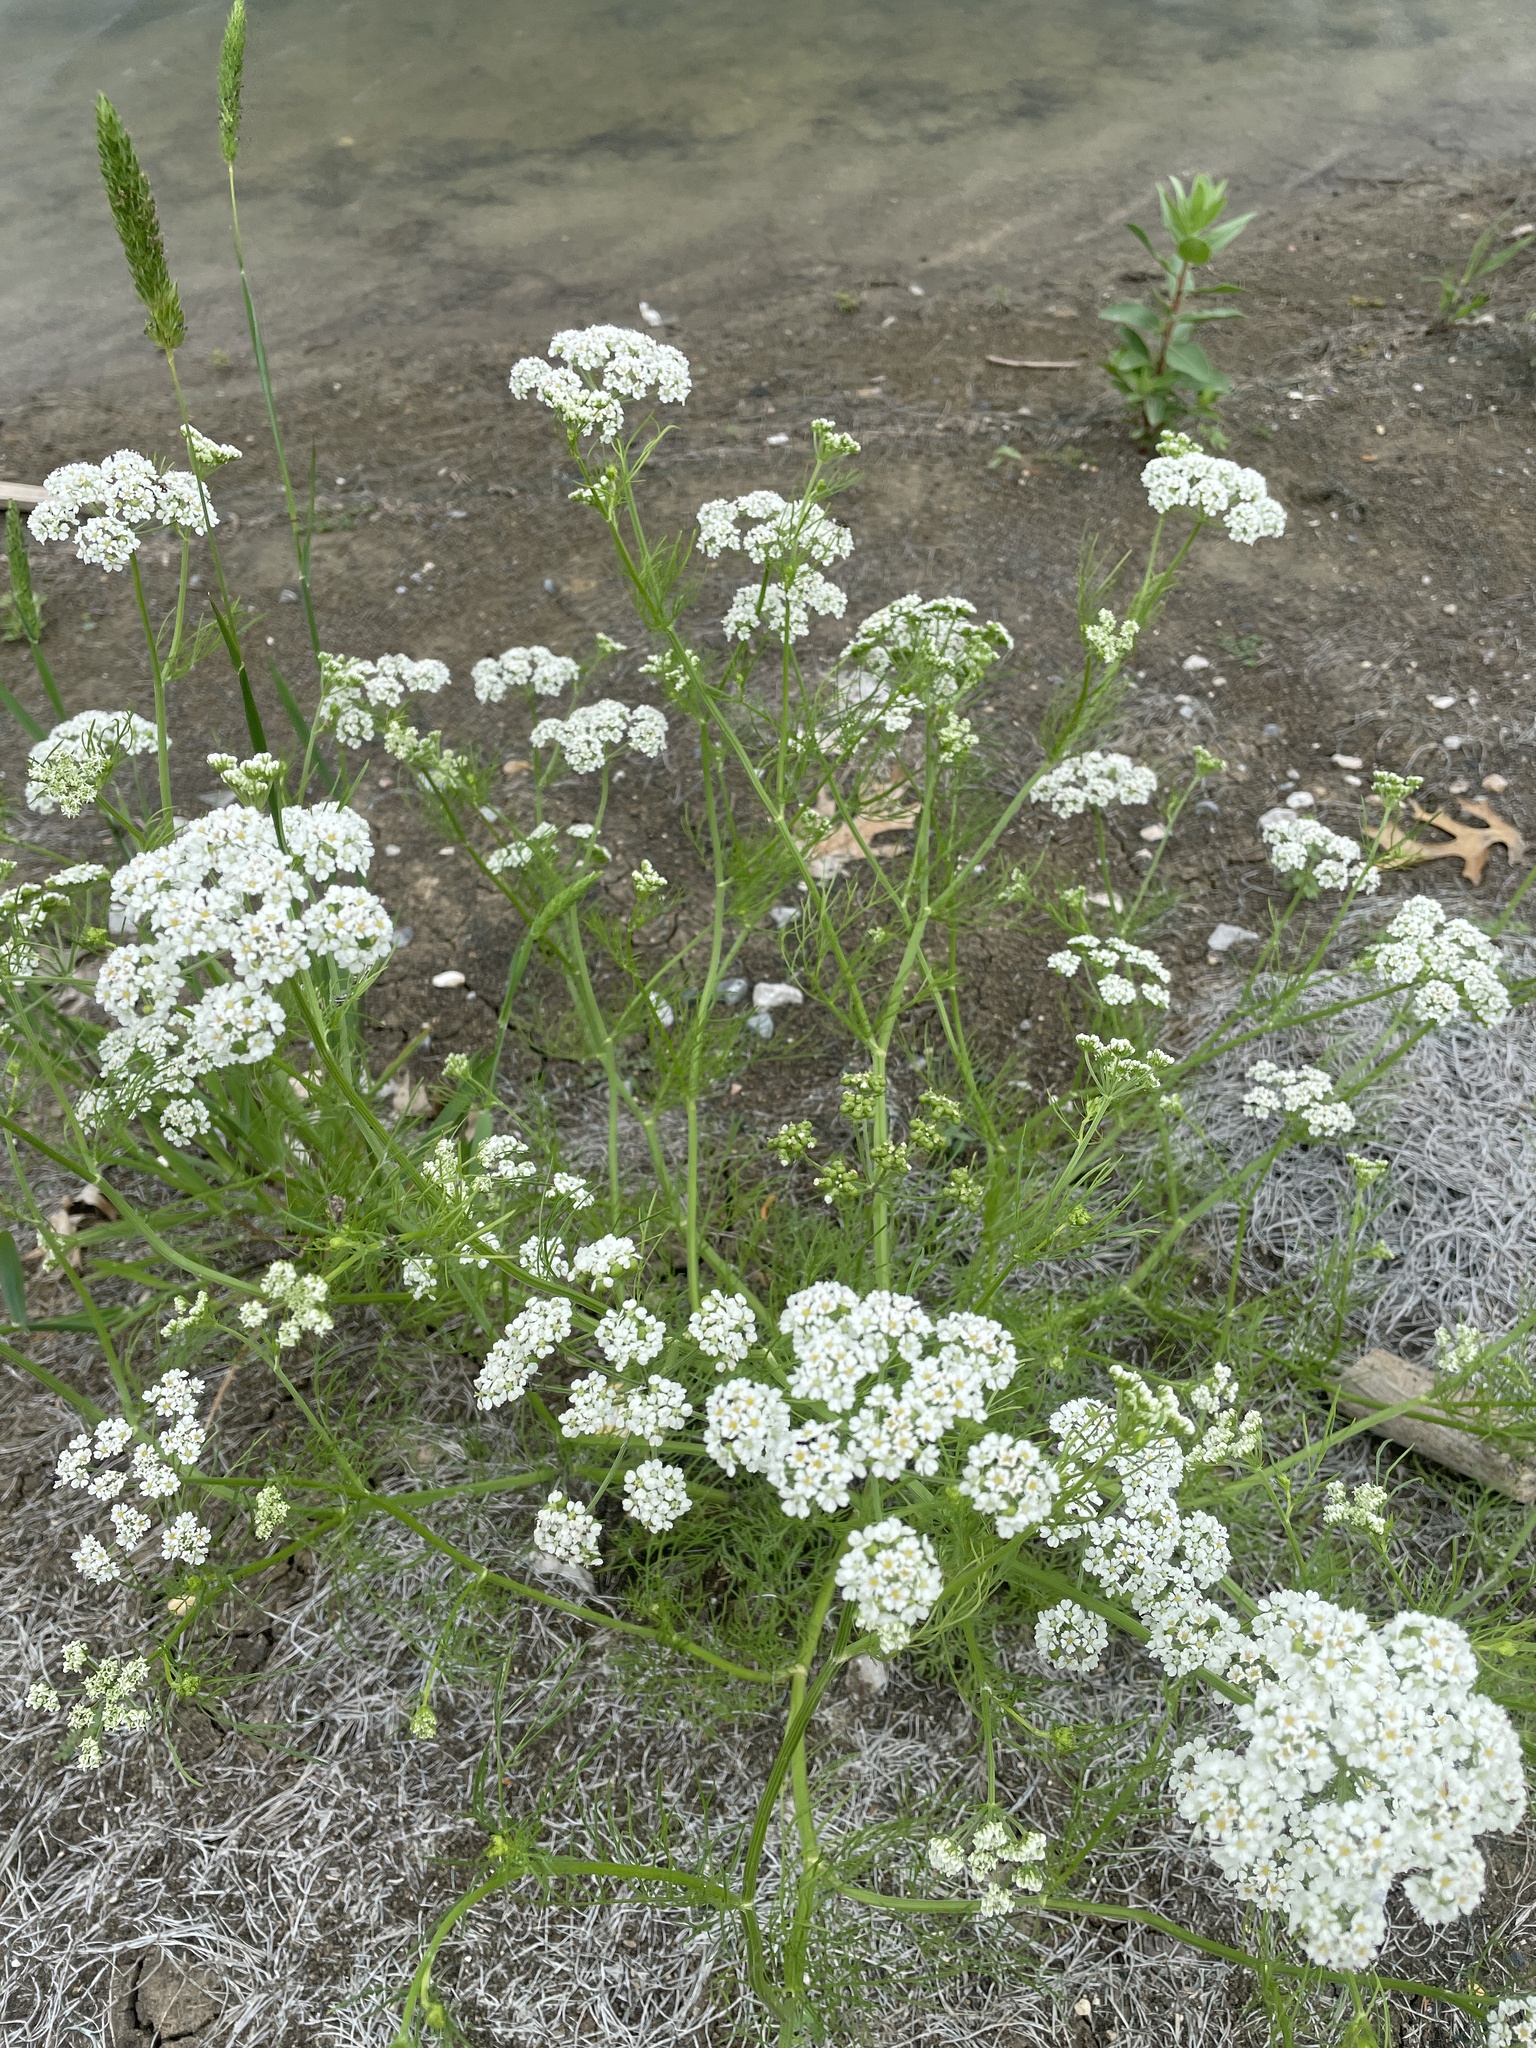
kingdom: Plantae
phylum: Tracheophyta
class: Magnoliopsida
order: Apiales
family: Apiaceae
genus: Atrema
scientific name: Atrema americanum
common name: Prairie-bishop
